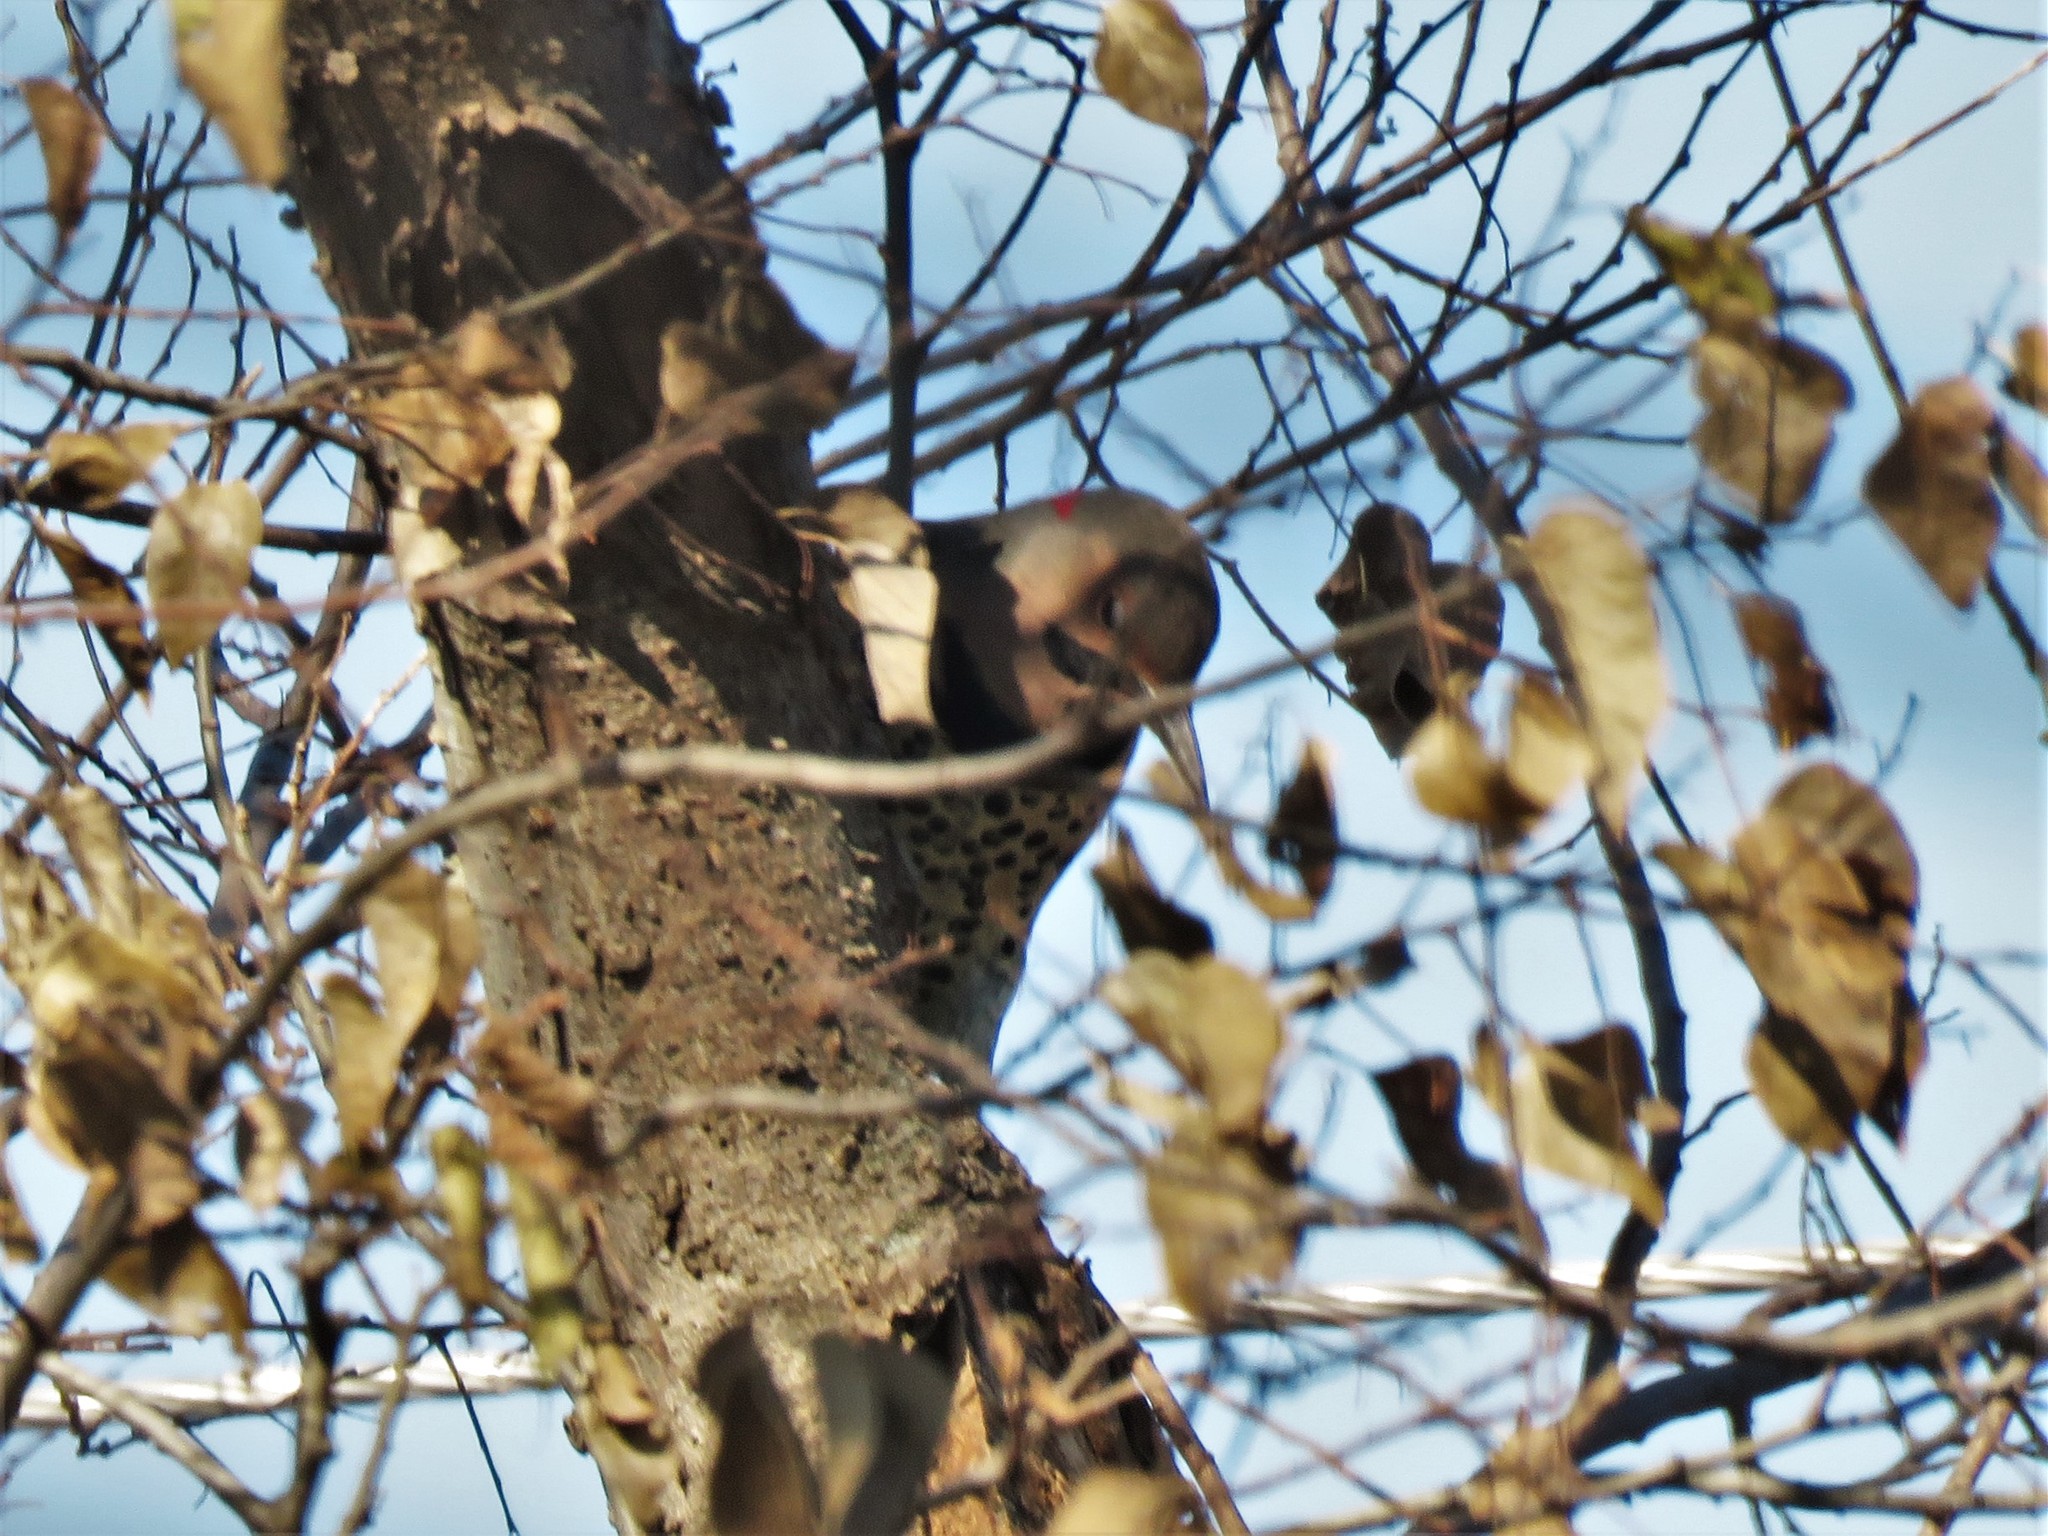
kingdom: Animalia
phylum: Chordata
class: Aves
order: Piciformes
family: Picidae
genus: Colaptes
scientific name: Colaptes auratus
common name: Northern flicker
